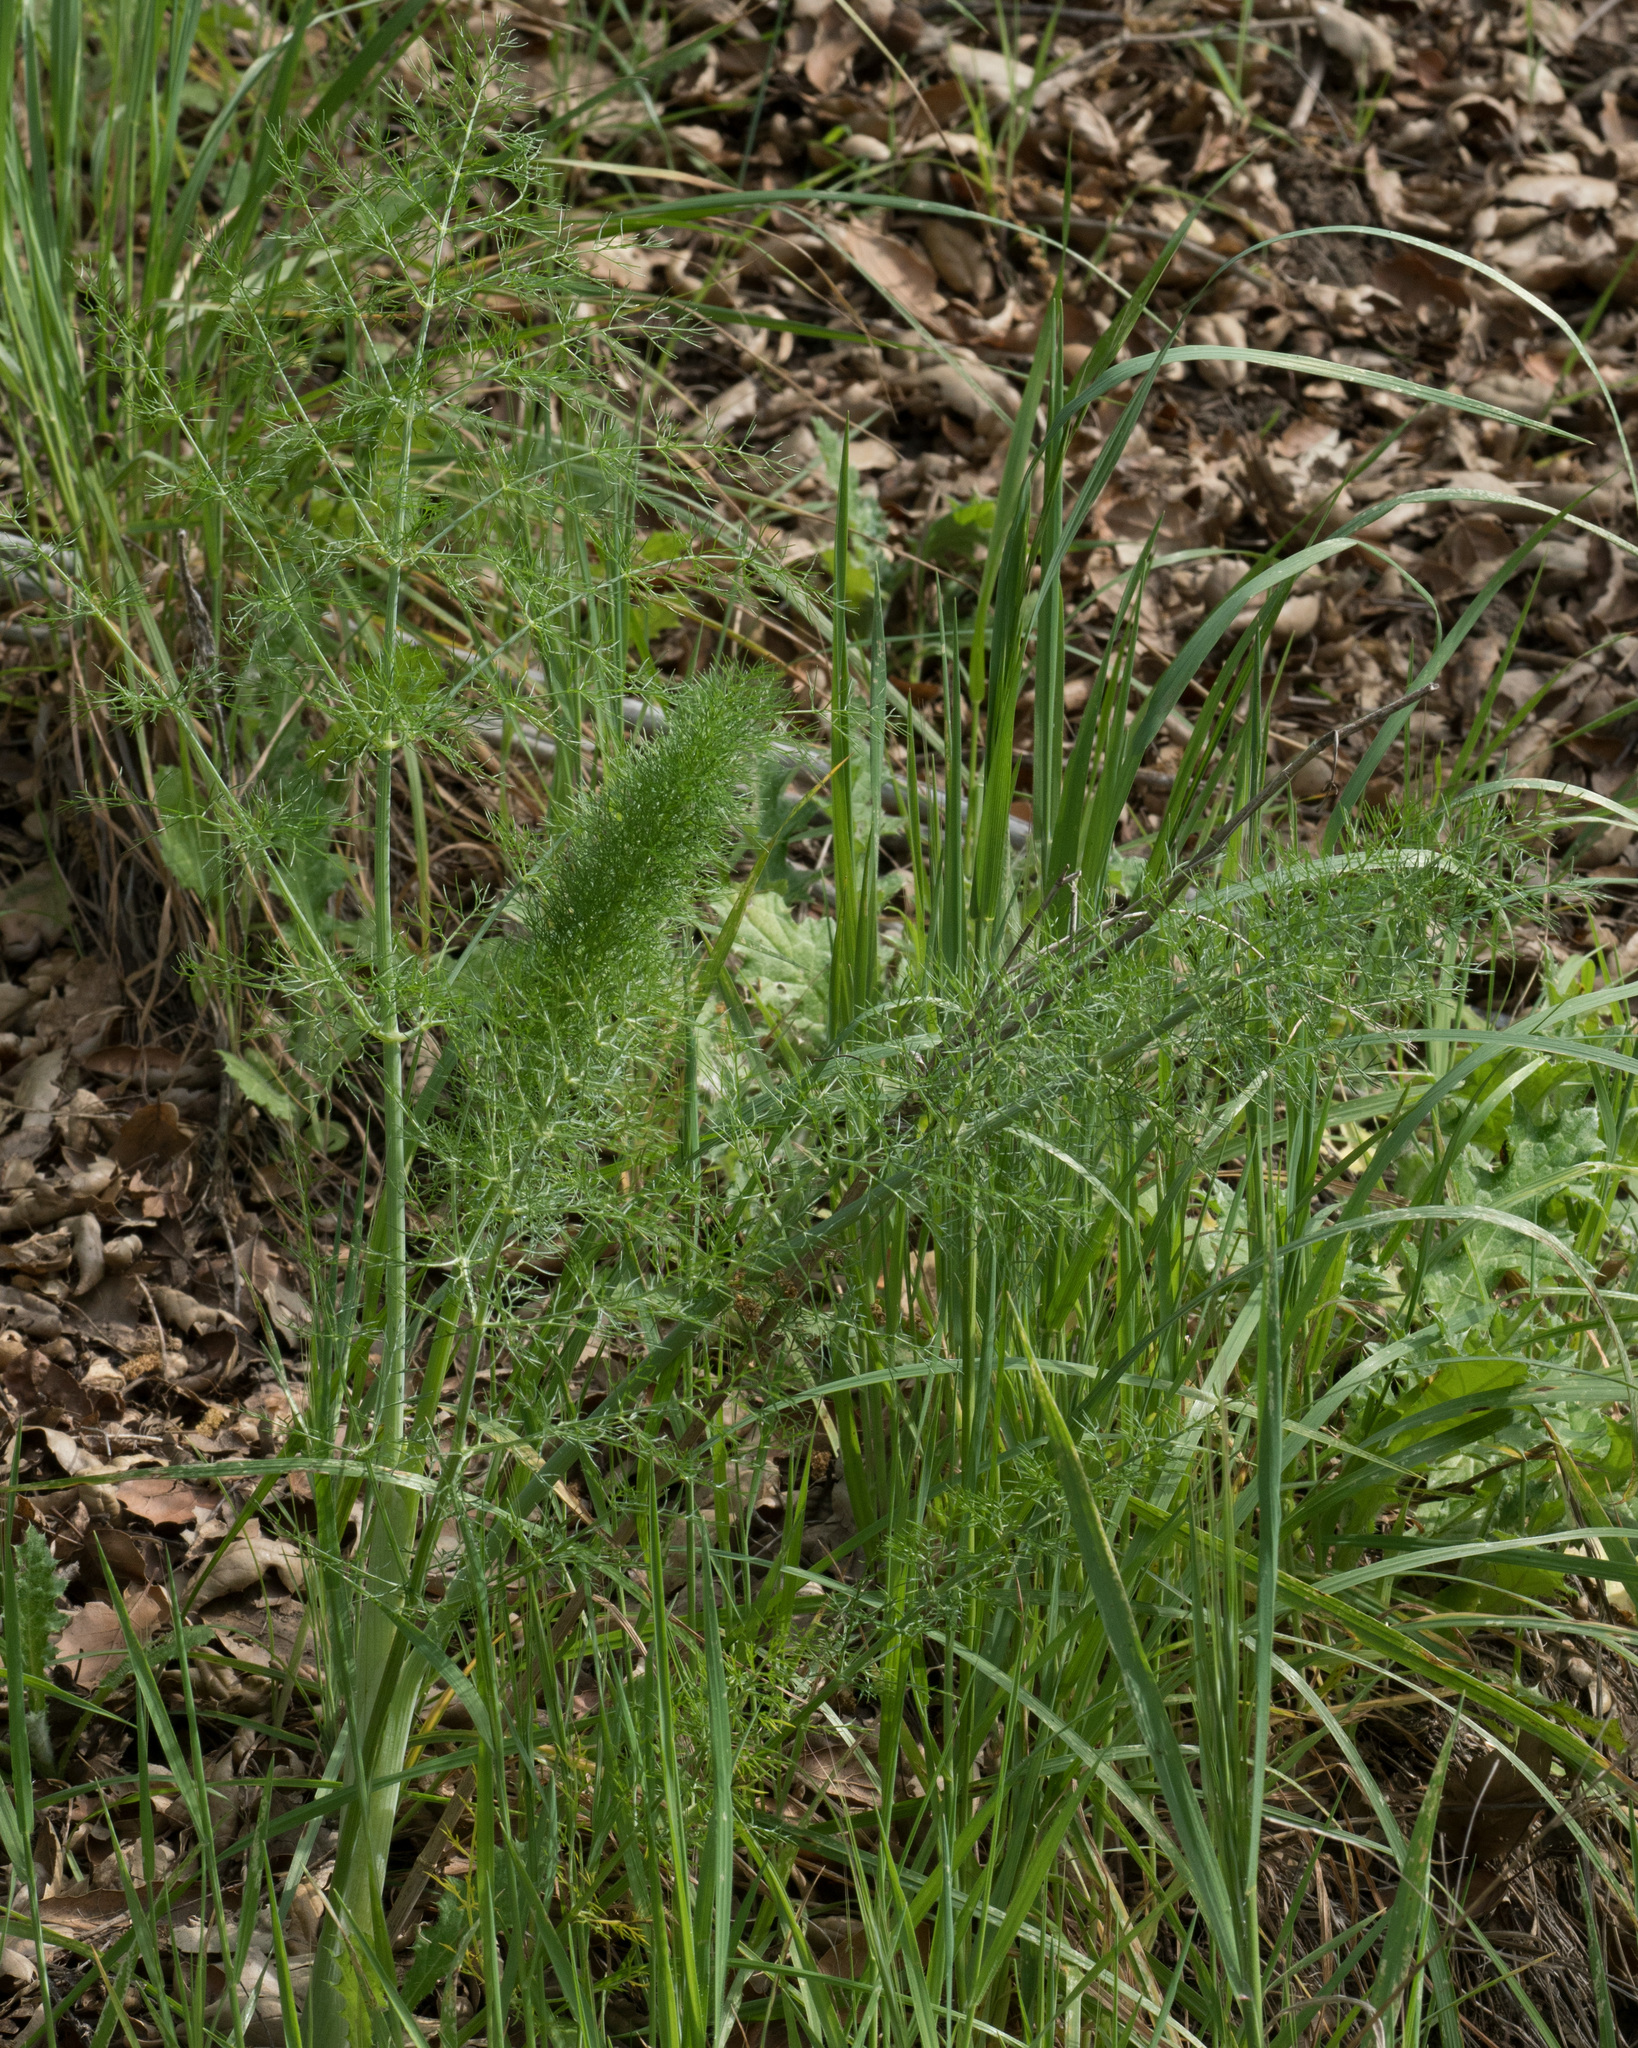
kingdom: Plantae
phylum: Tracheophyta
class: Magnoliopsida
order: Apiales
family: Apiaceae
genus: Foeniculum
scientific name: Foeniculum vulgare
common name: Fennel
